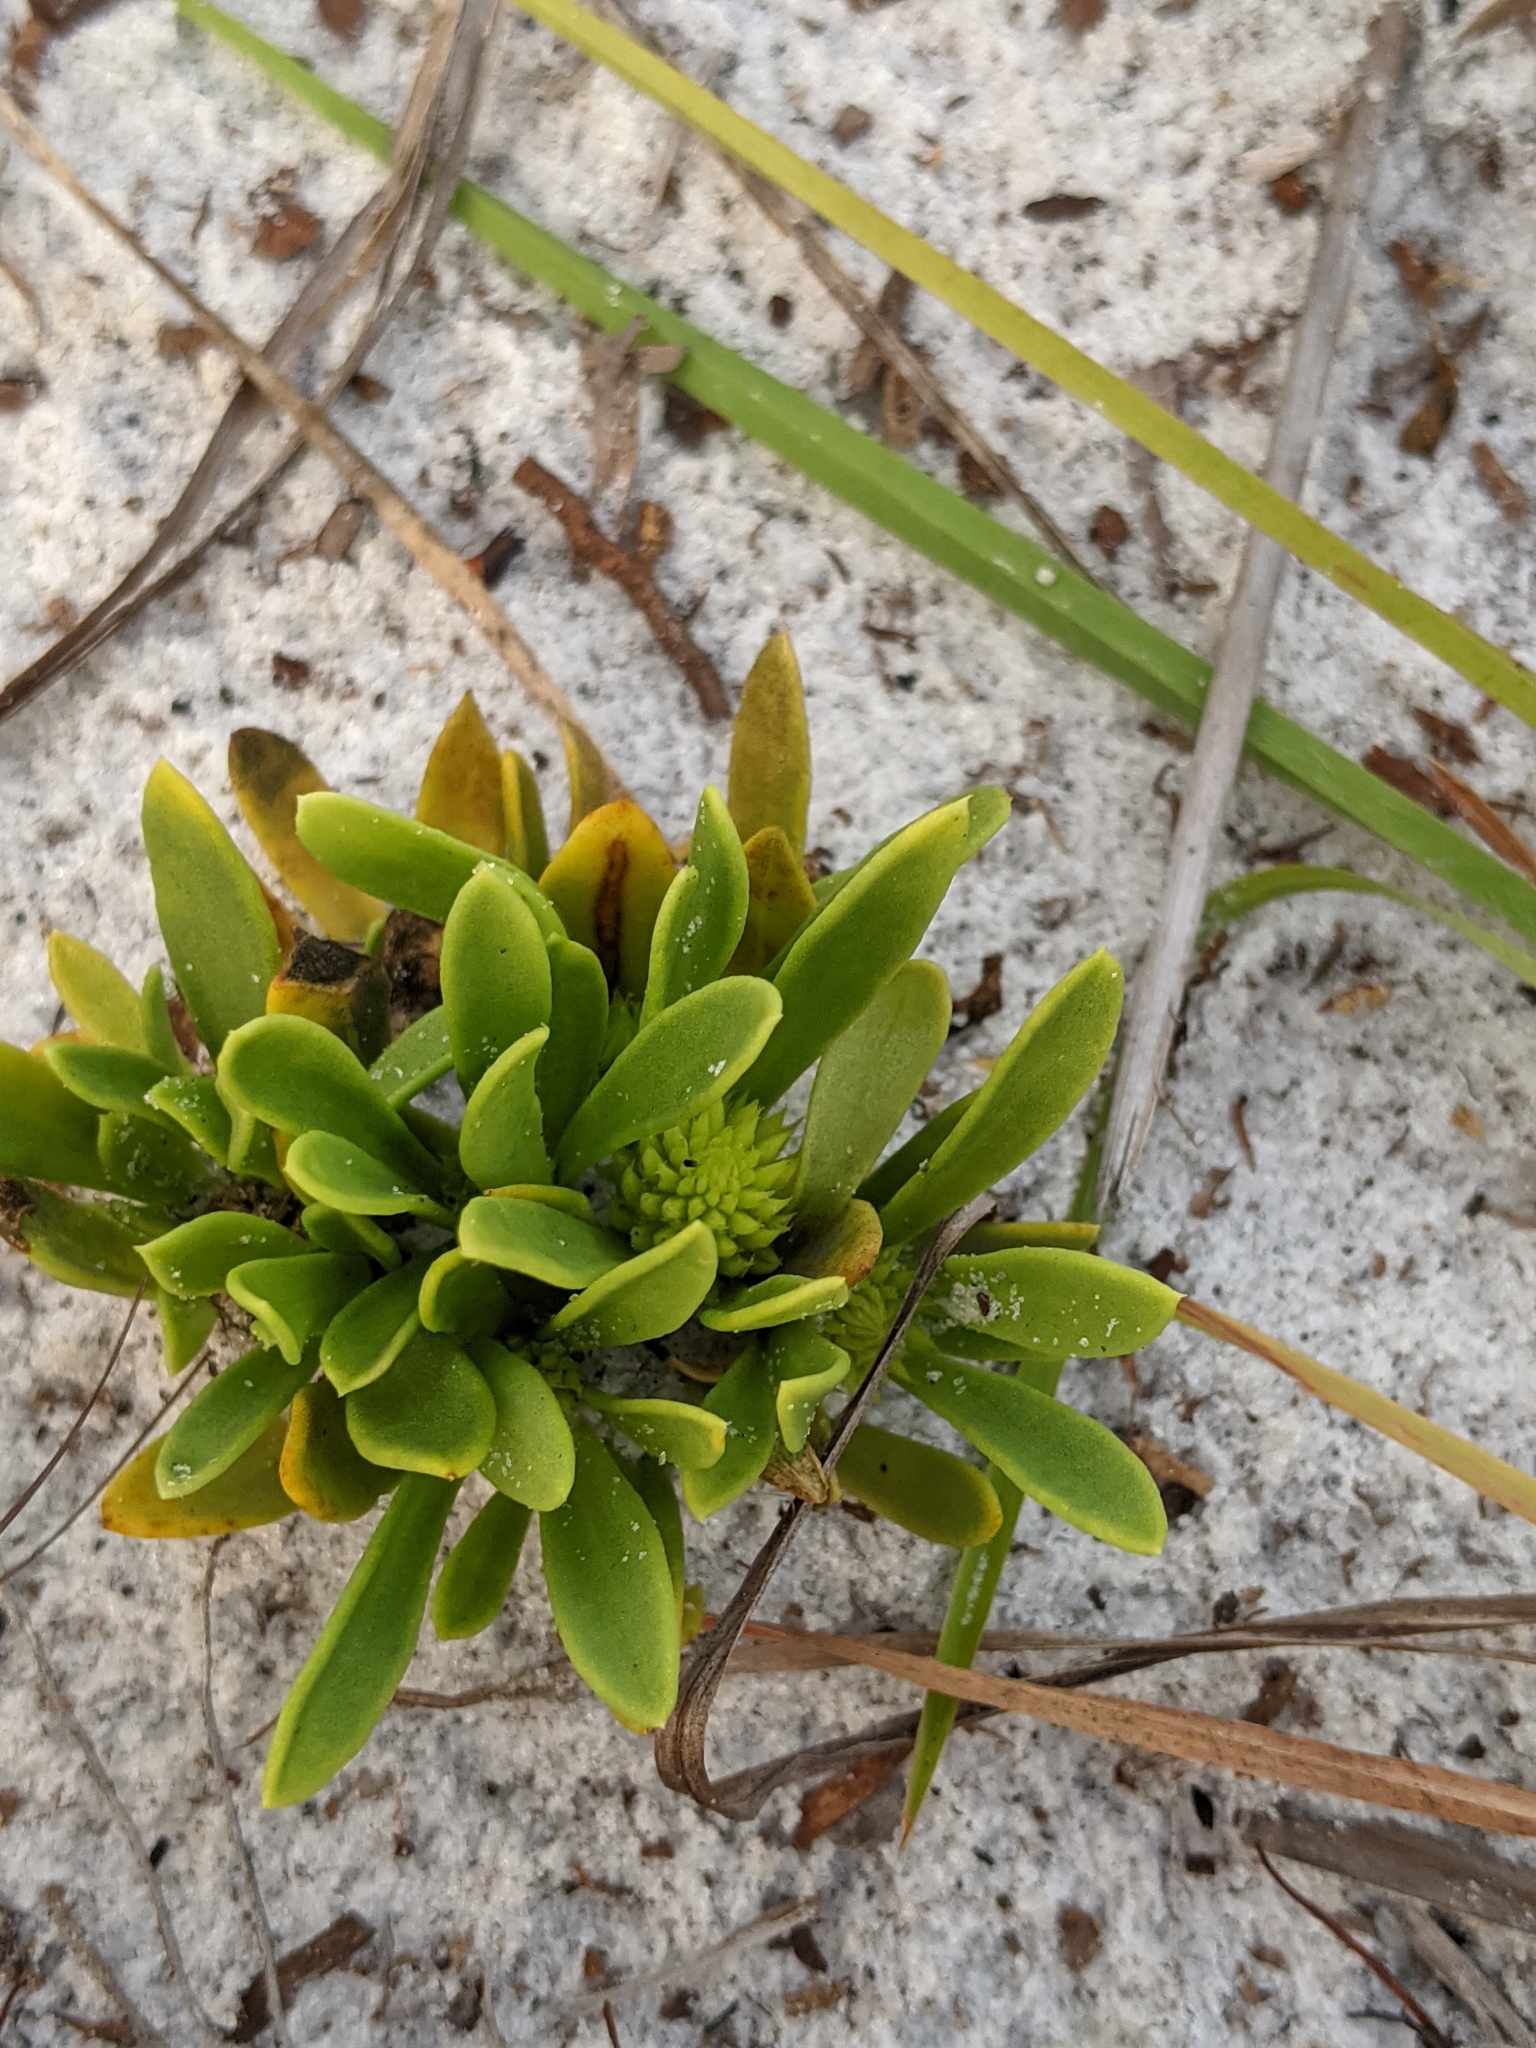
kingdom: Plantae
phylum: Tracheophyta
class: Magnoliopsida
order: Fabales
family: Polygalaceae
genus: Polygala
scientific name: Polygala nana
